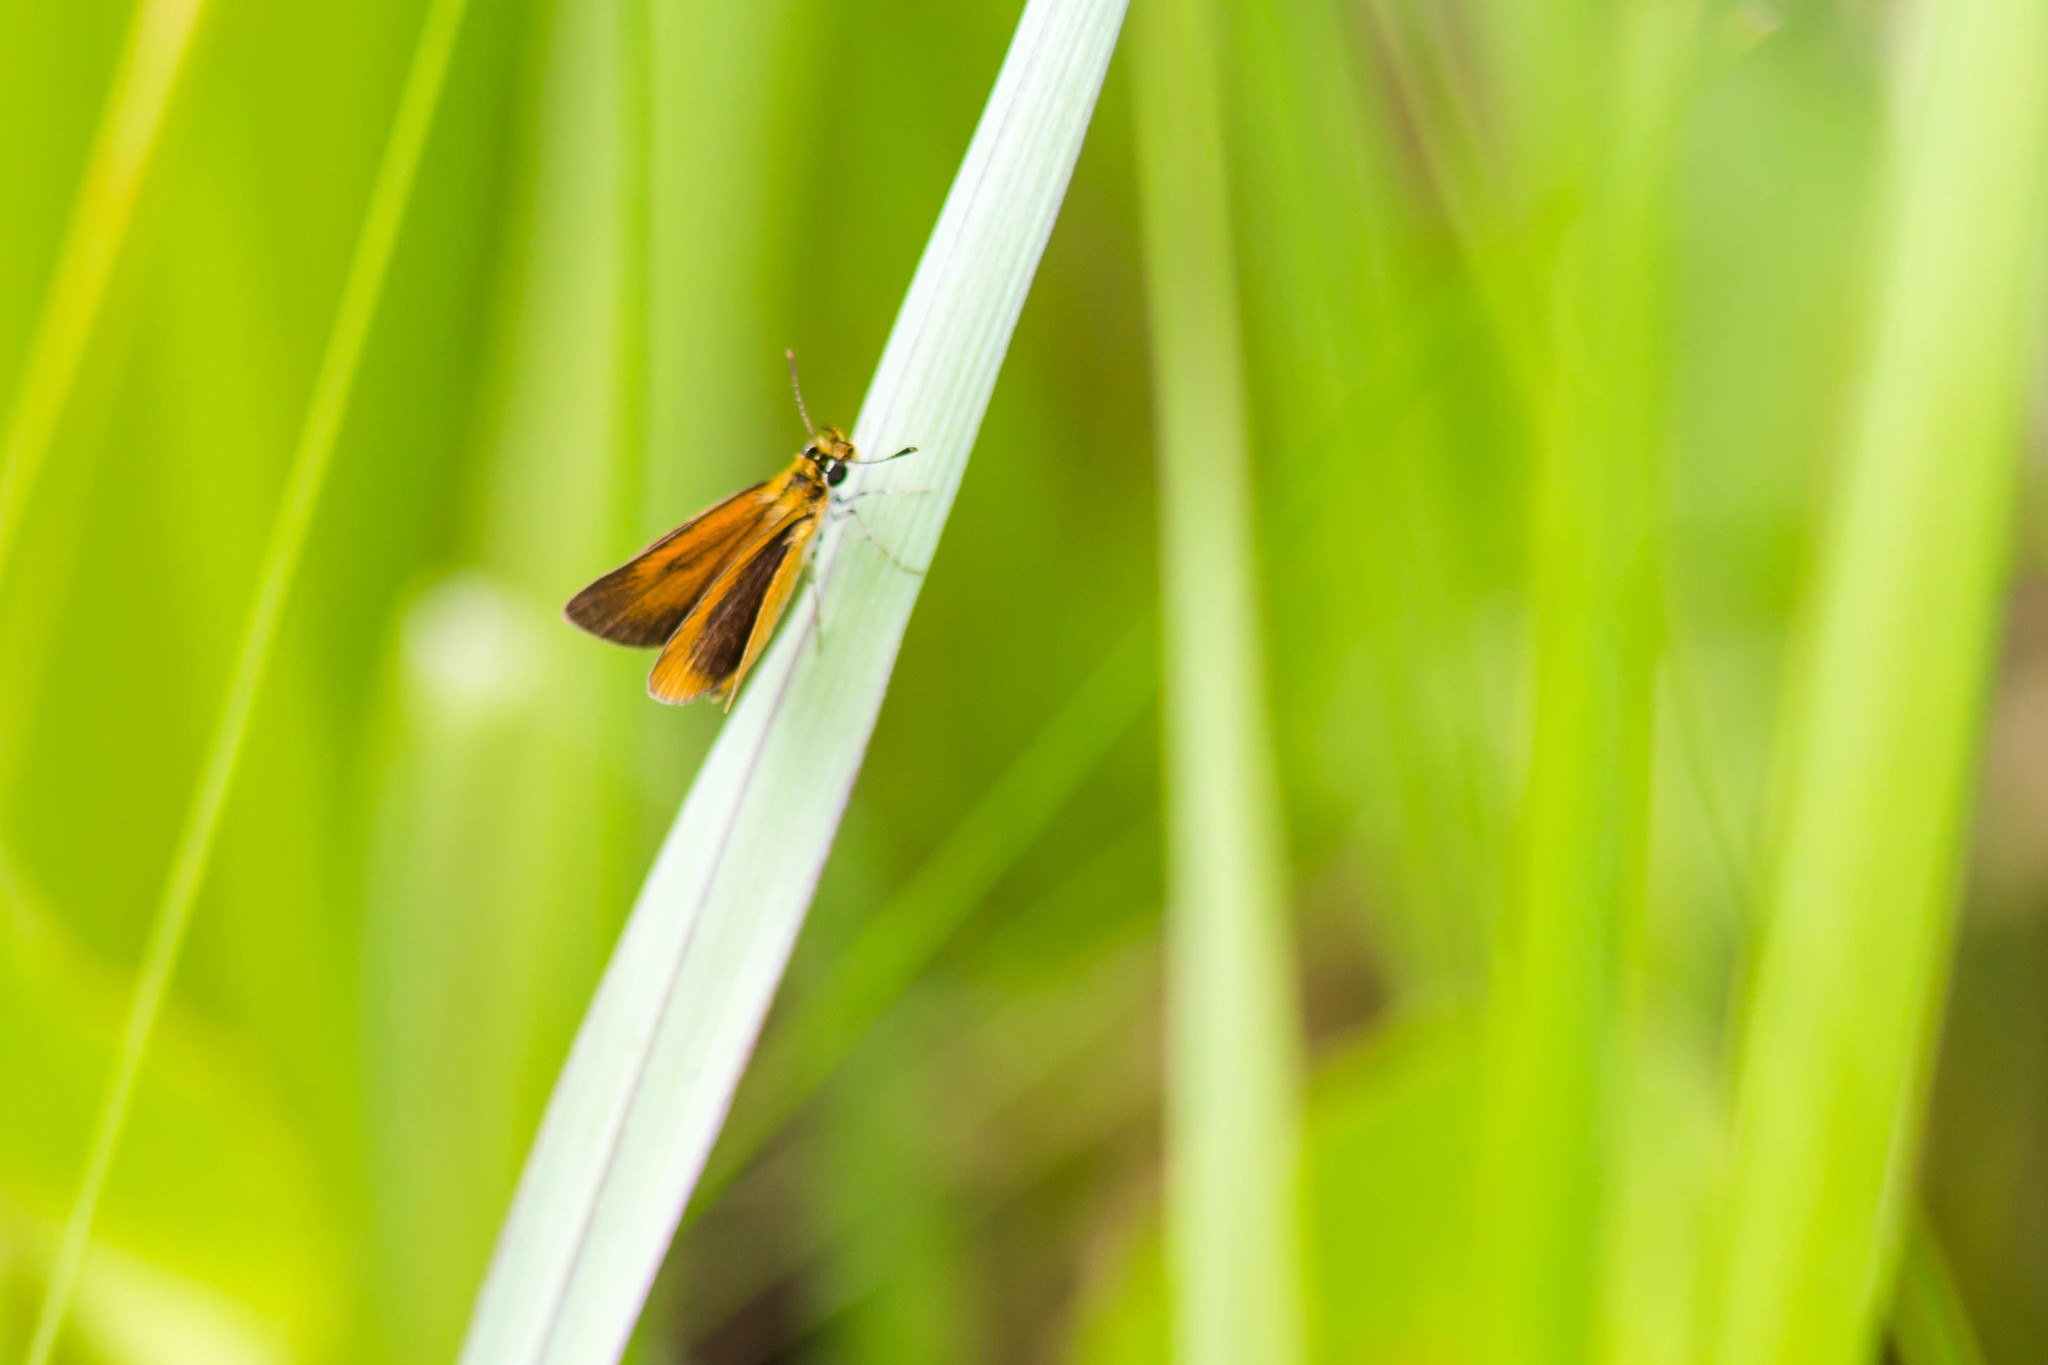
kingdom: Animalia
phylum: Arthropoda
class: Insecta
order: Lepidoptera
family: Hesperiidae
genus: Ancyloxypha
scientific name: Ancyloxypha numitor
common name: Least skipper
